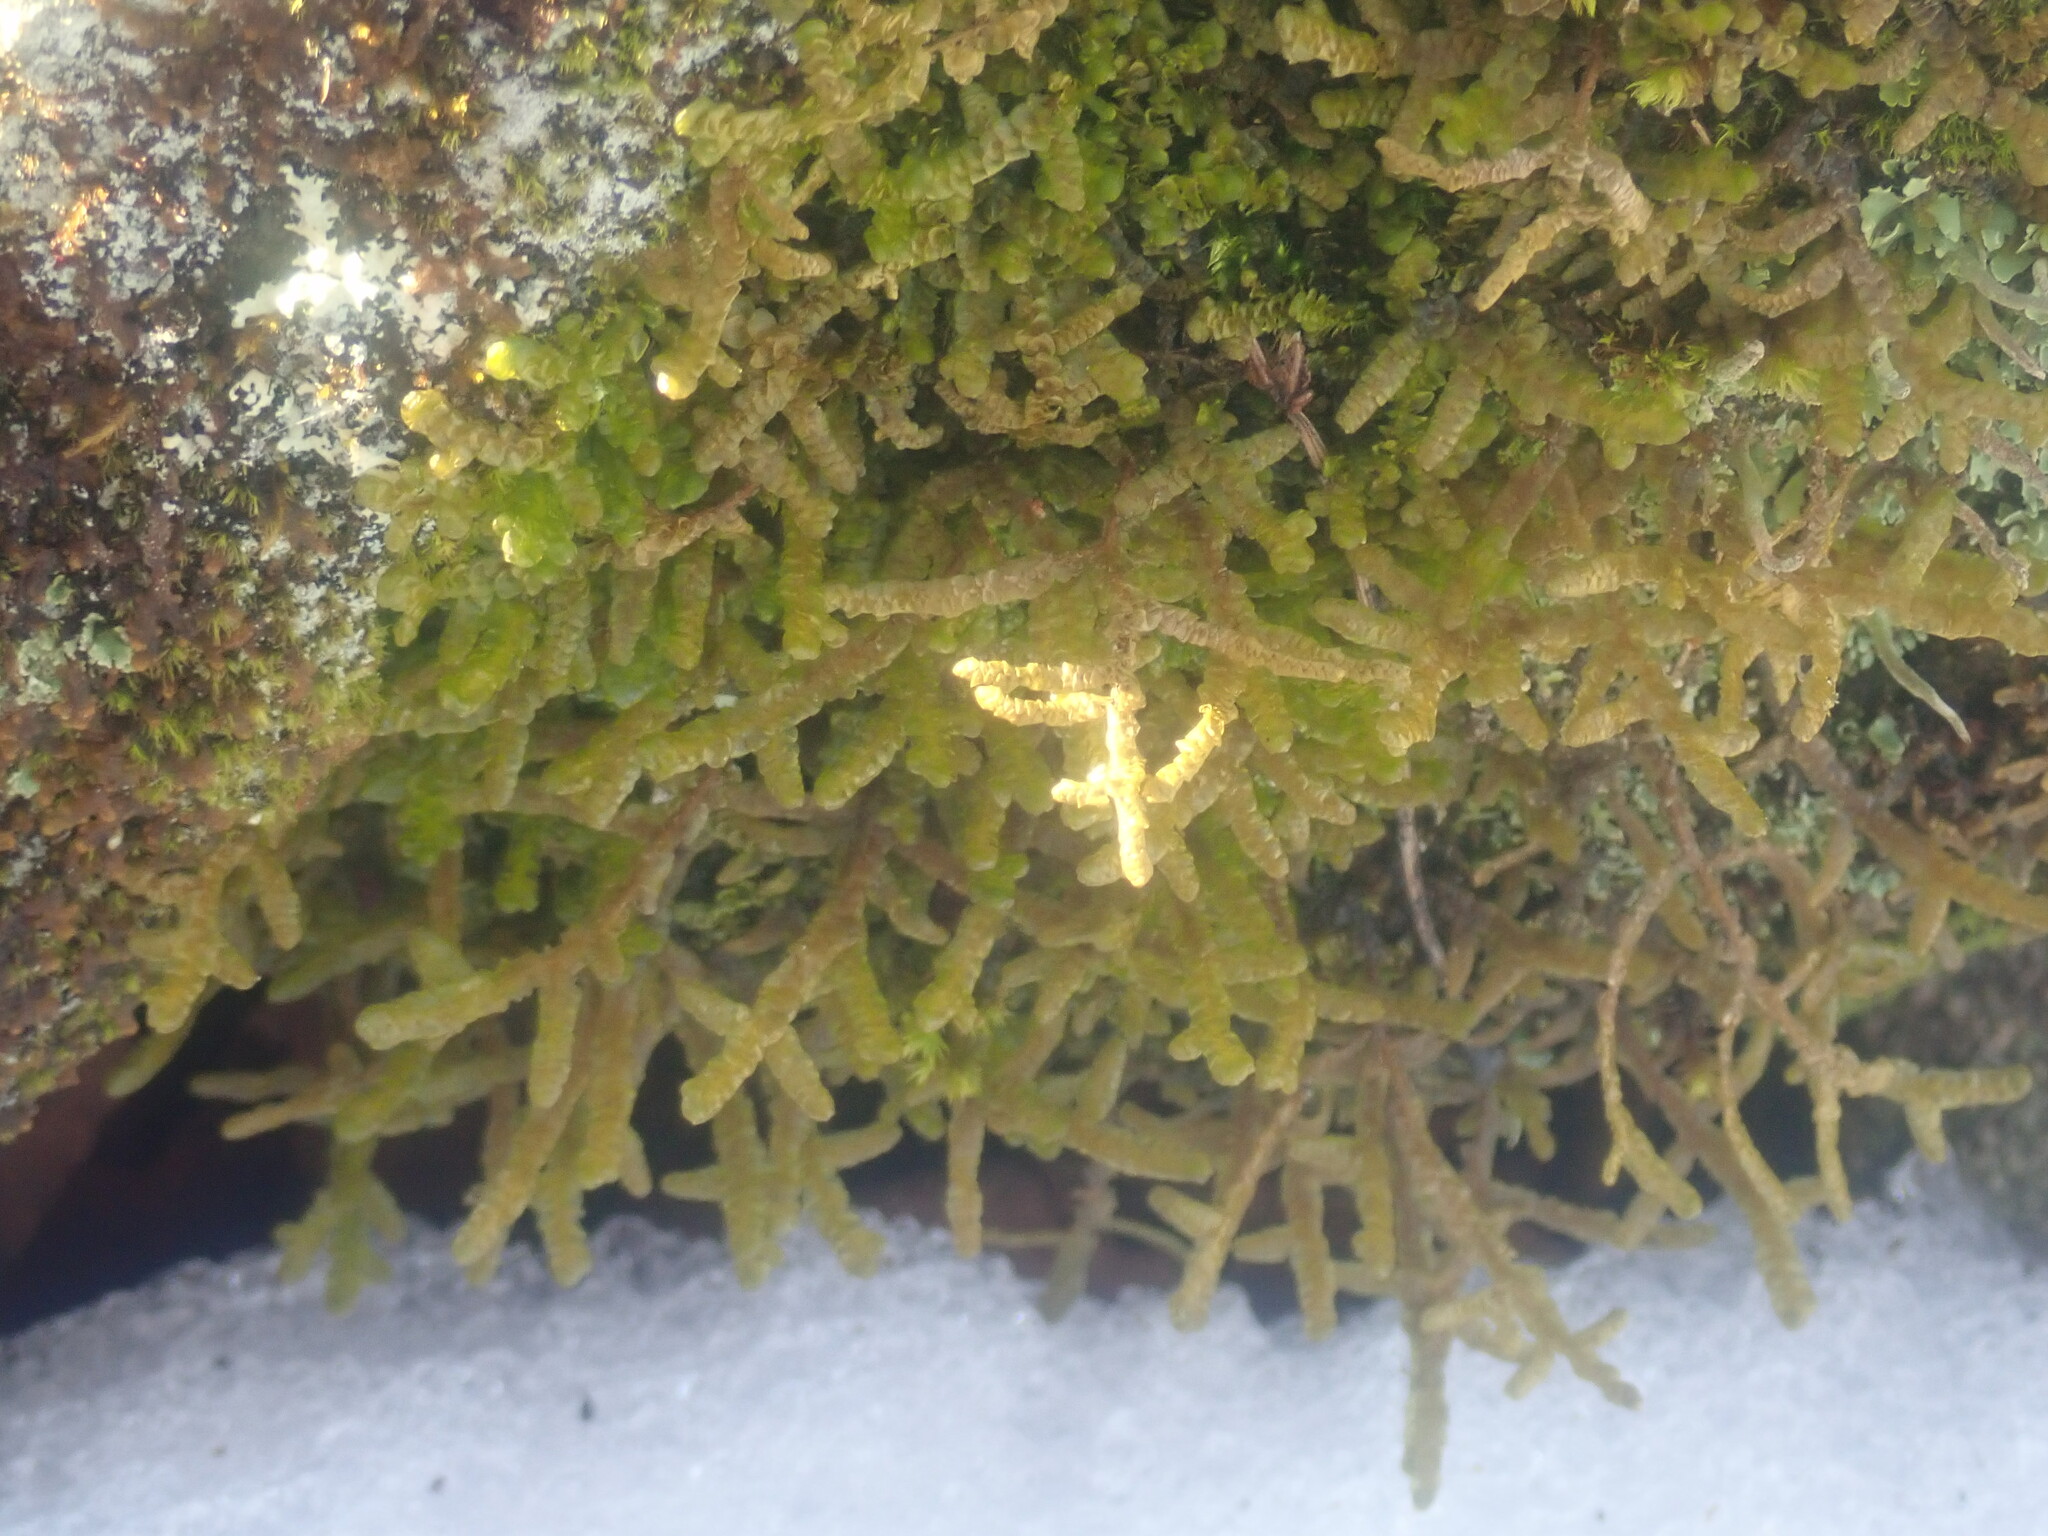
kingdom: Plantae
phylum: Marchantiophyta
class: Jungermanniopsida
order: Porellales
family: Porellaceae
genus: Porella
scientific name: Porella platyphylla
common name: Wall scalewort
